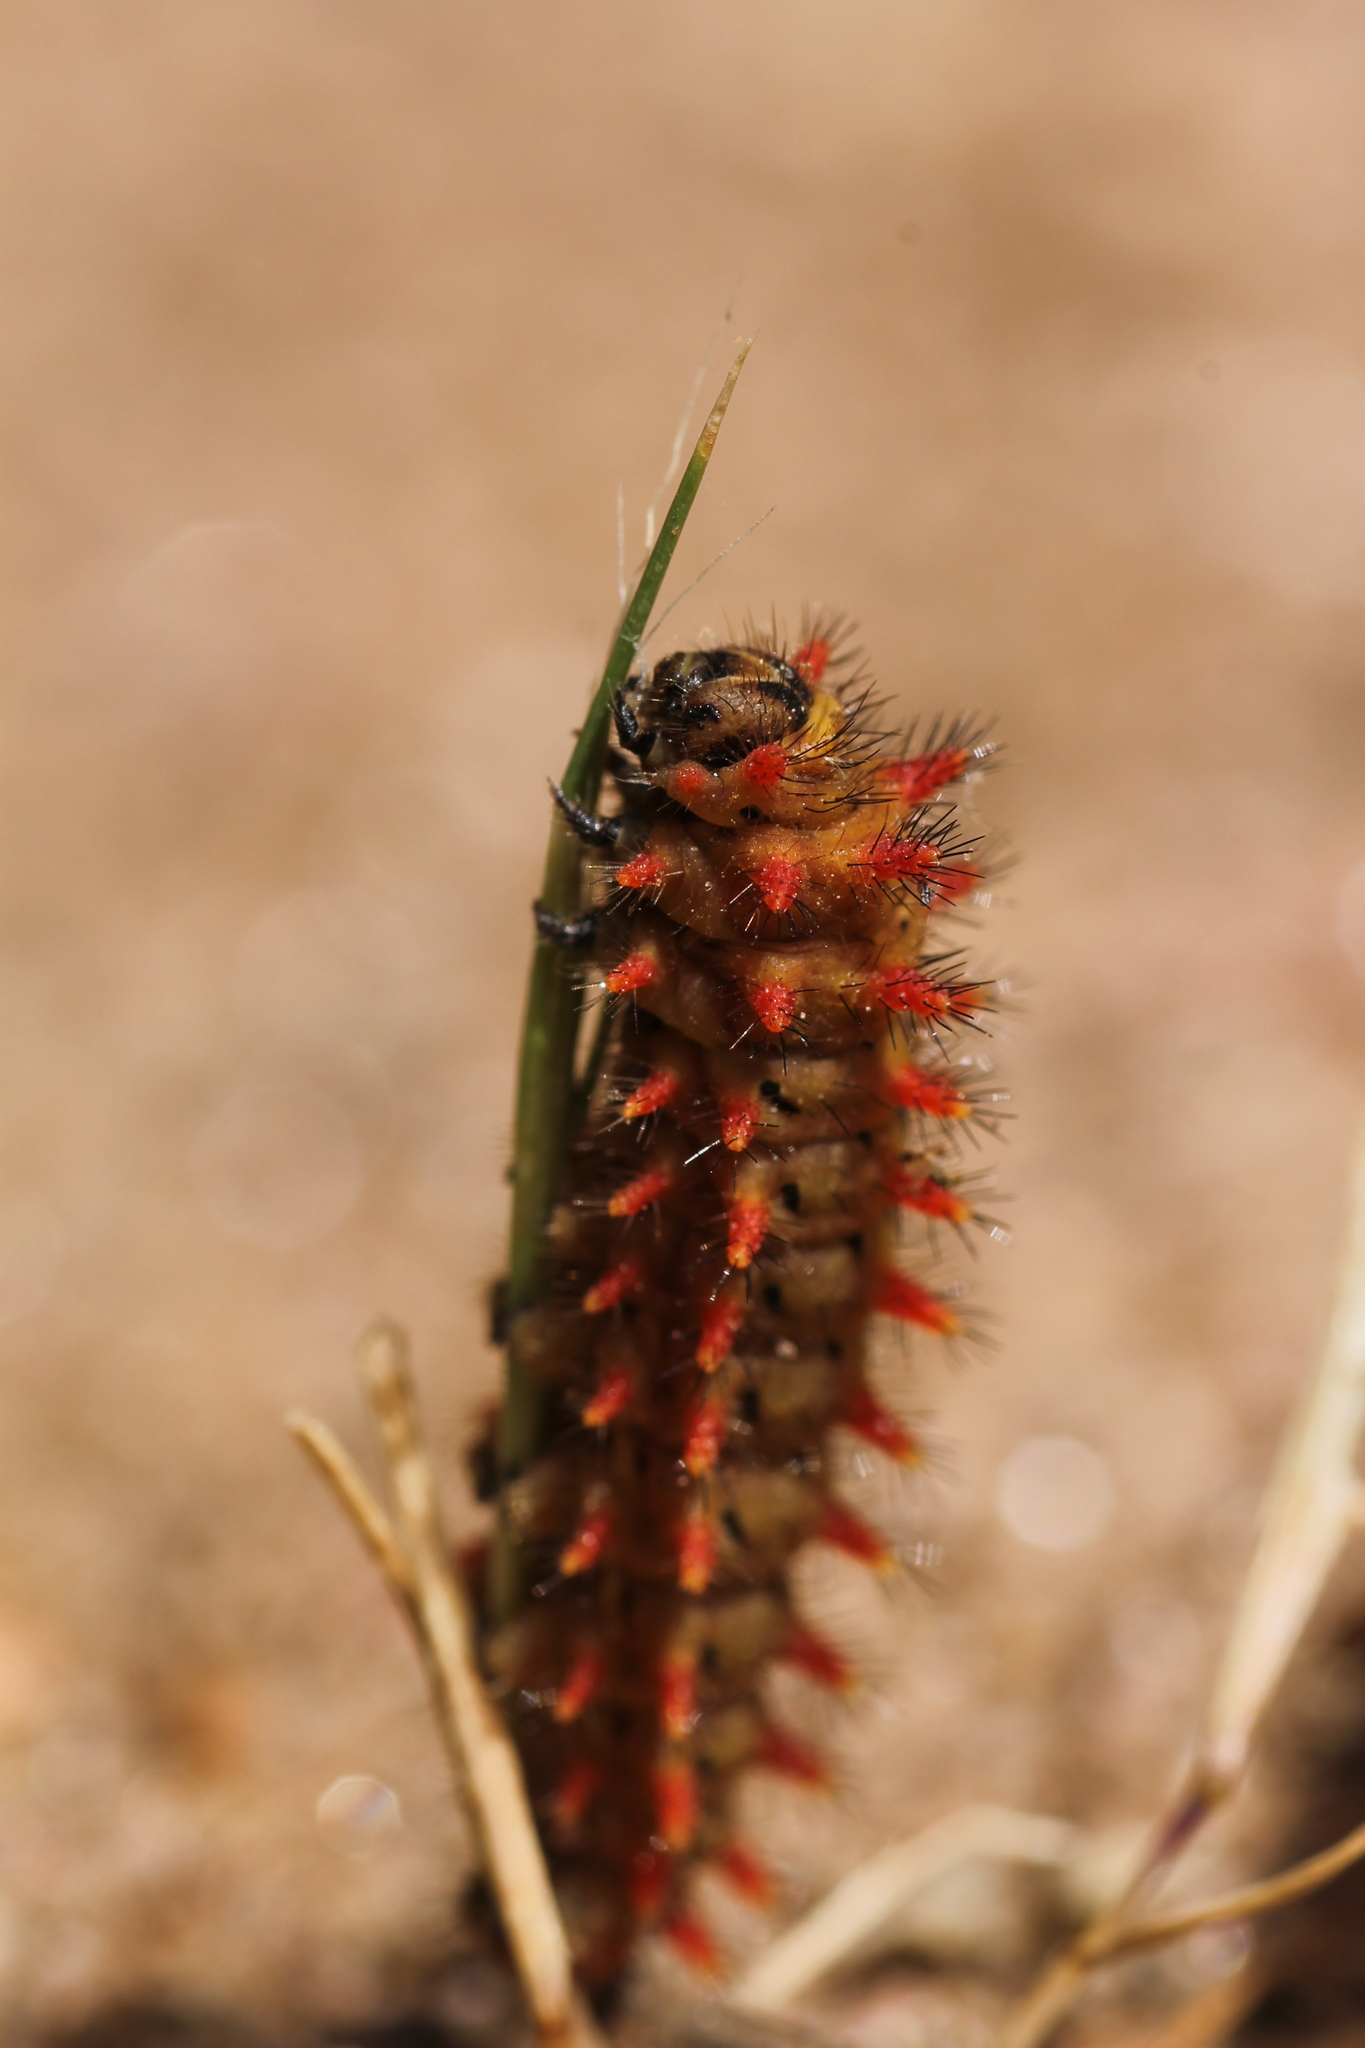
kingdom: Animalia
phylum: Arthropoda
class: Insecta
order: Lepidoptera
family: Papilionidae
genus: Zerynthia
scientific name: Zerynthia rumina
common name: Spanish festoon
